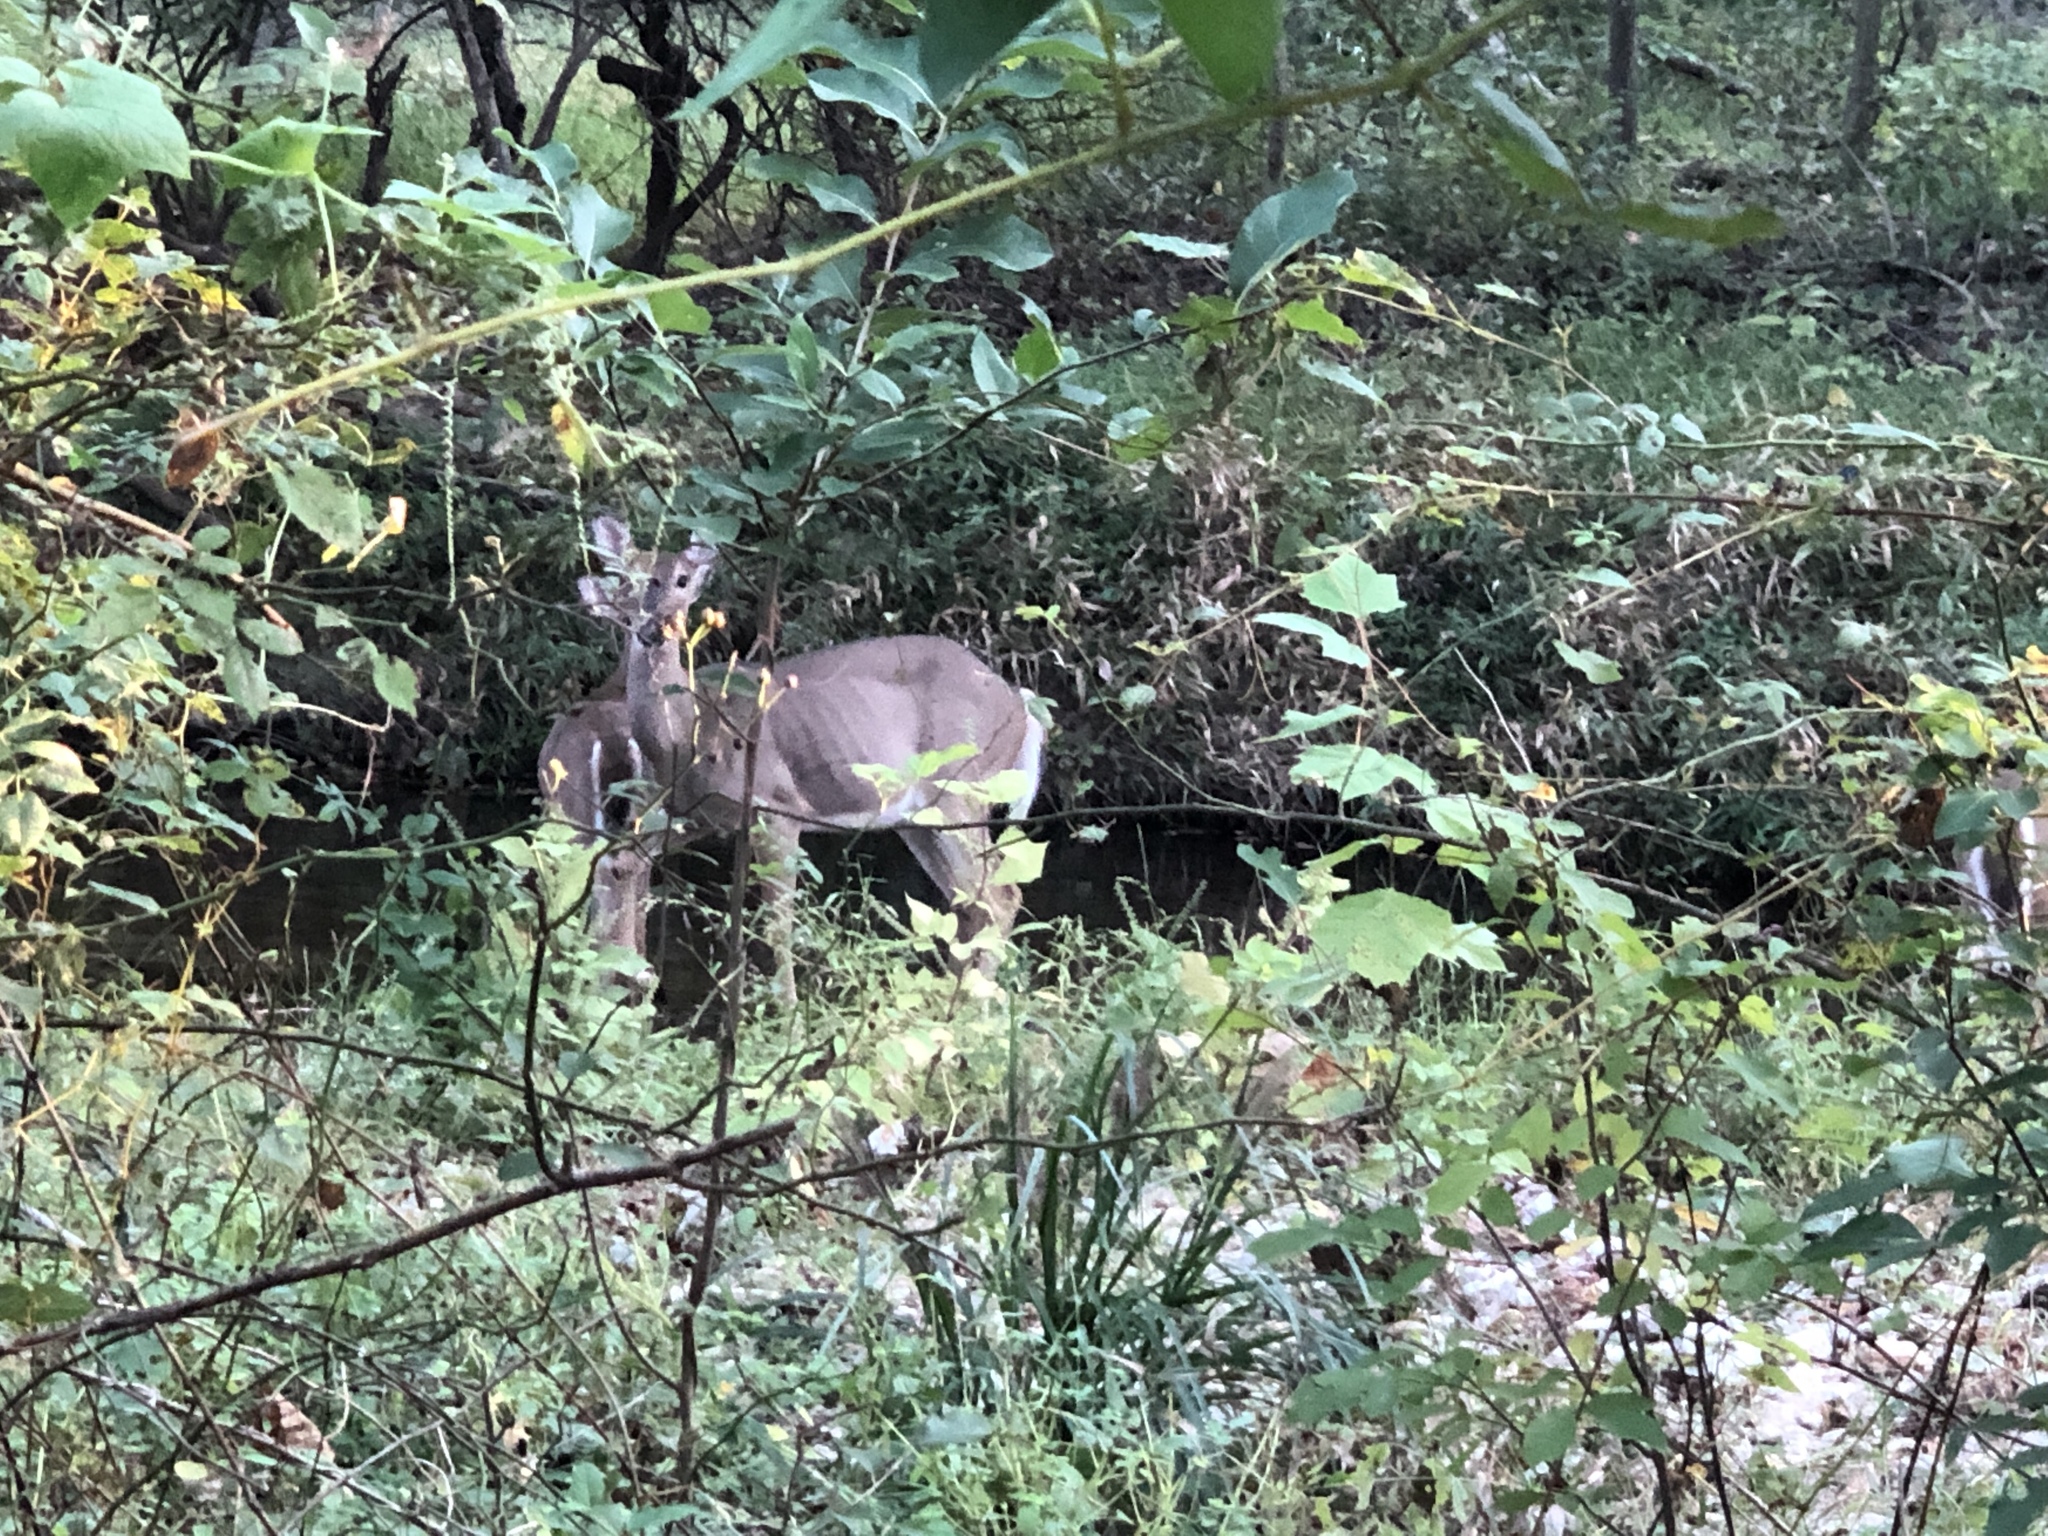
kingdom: Animalia
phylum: Chordata
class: Mammalia
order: Artiodactyla
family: Cervidae
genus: Odocoileus
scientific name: Odocoileus virginianus
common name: White-tailed deer
